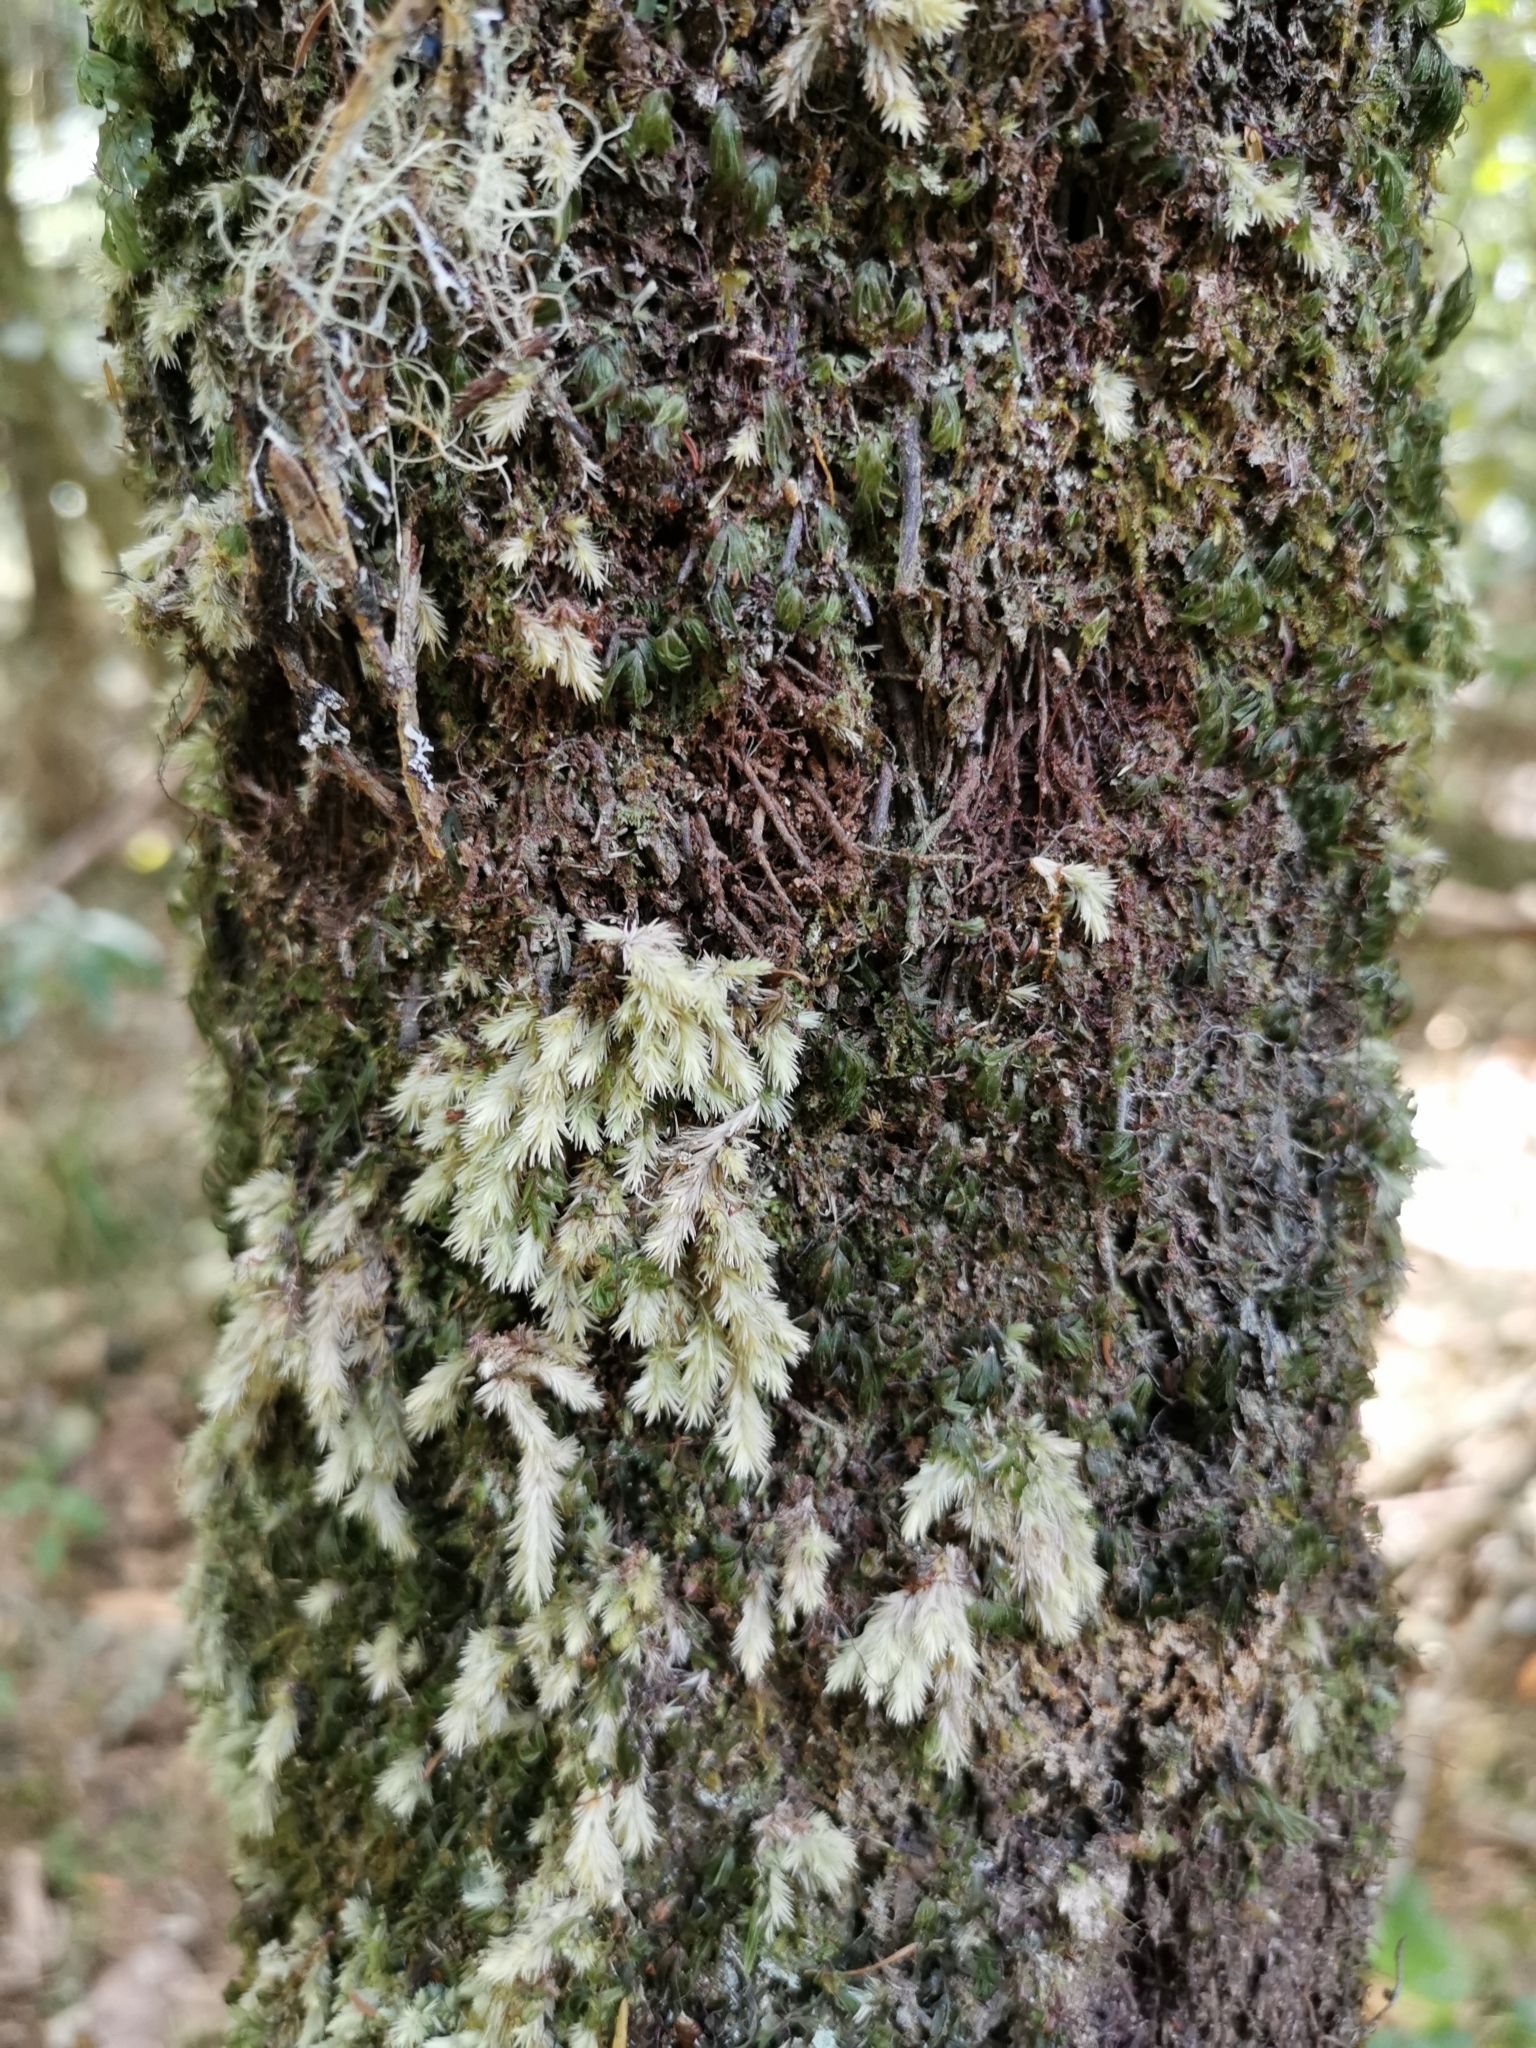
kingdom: Plantae
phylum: Bryophyta
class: Bryopsida
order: Dicranales
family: Leucobryaceae
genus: Leucobryum
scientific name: Leucobryum javense
